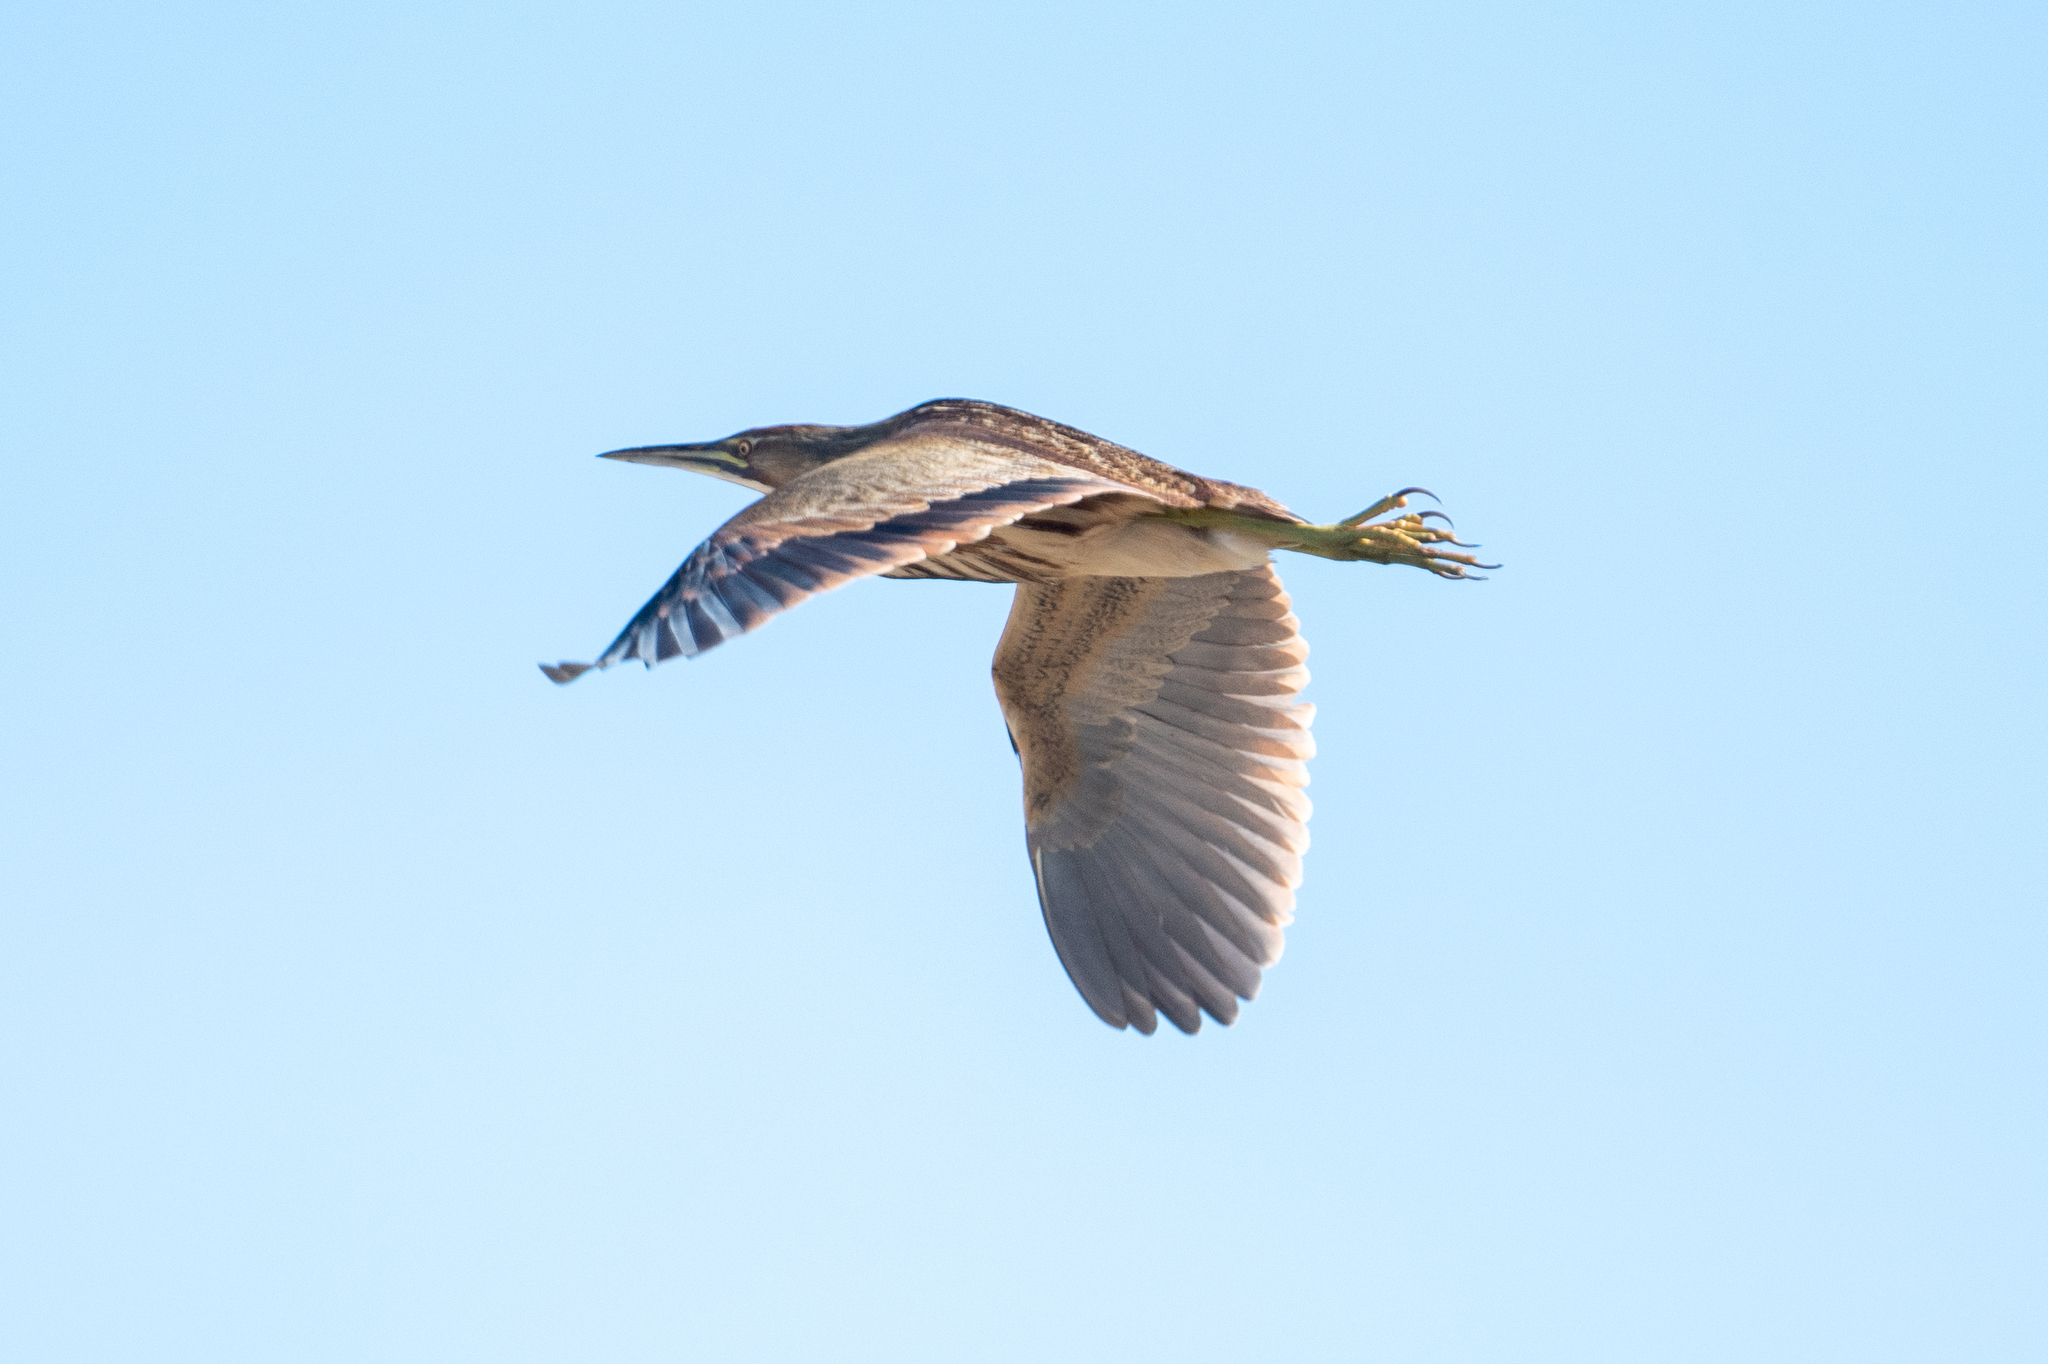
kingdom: Animalia
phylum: Chordata
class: Aves
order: Pelecaniformes
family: Ardeidae
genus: Botaurus
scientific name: Botaurus lentiginosus
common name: American bittern
